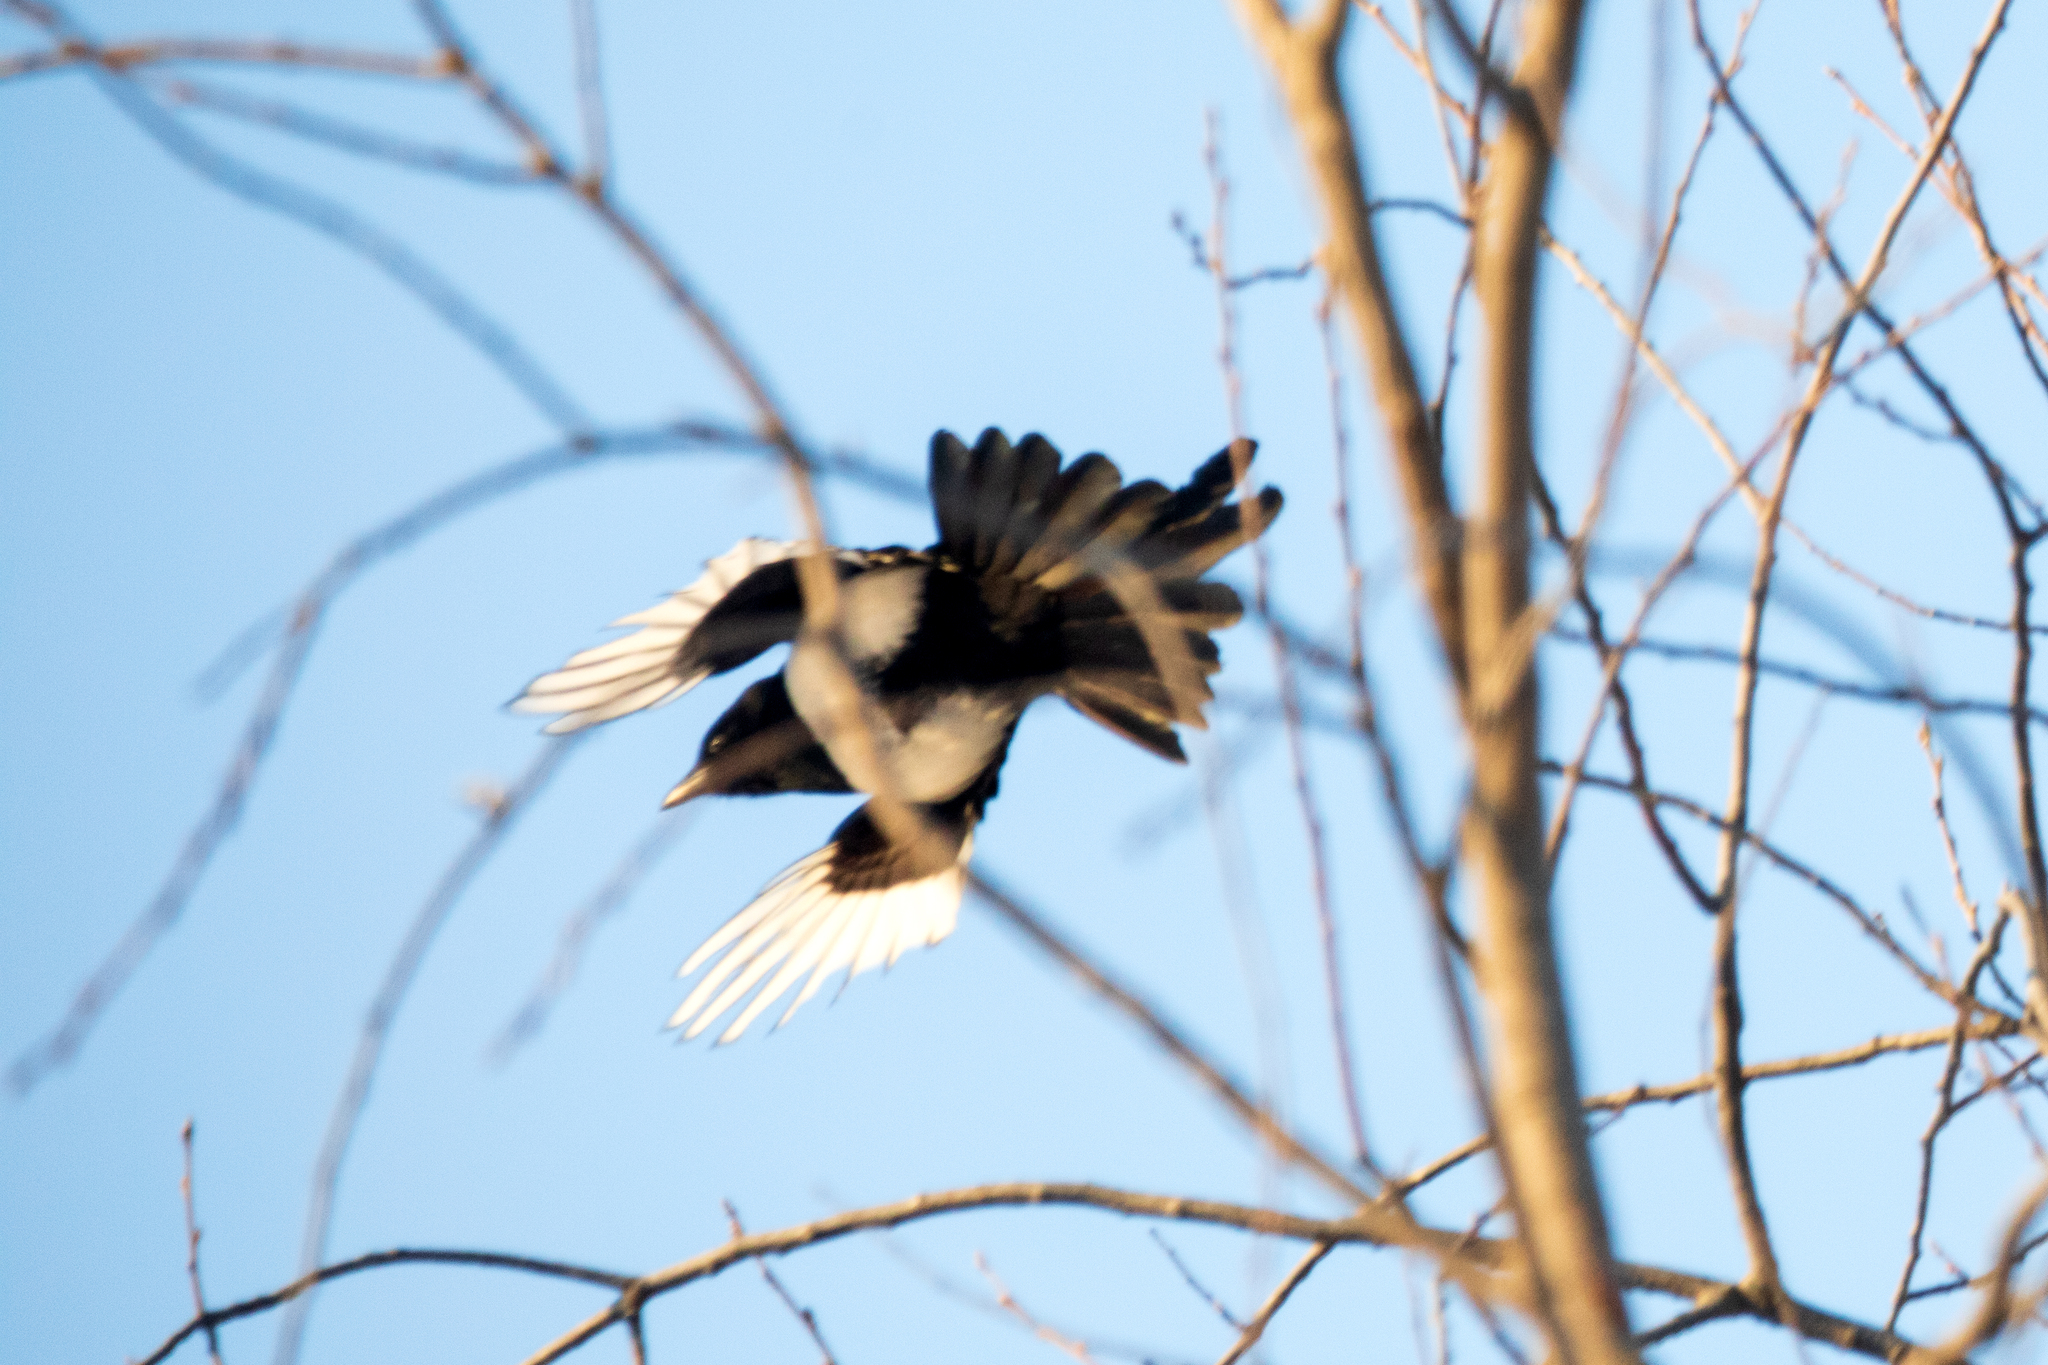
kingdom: Animalia
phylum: Chordata
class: Aves
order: Passeriformes
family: Corvidae
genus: Pica
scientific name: Pica pica
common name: Eurasian magpie
